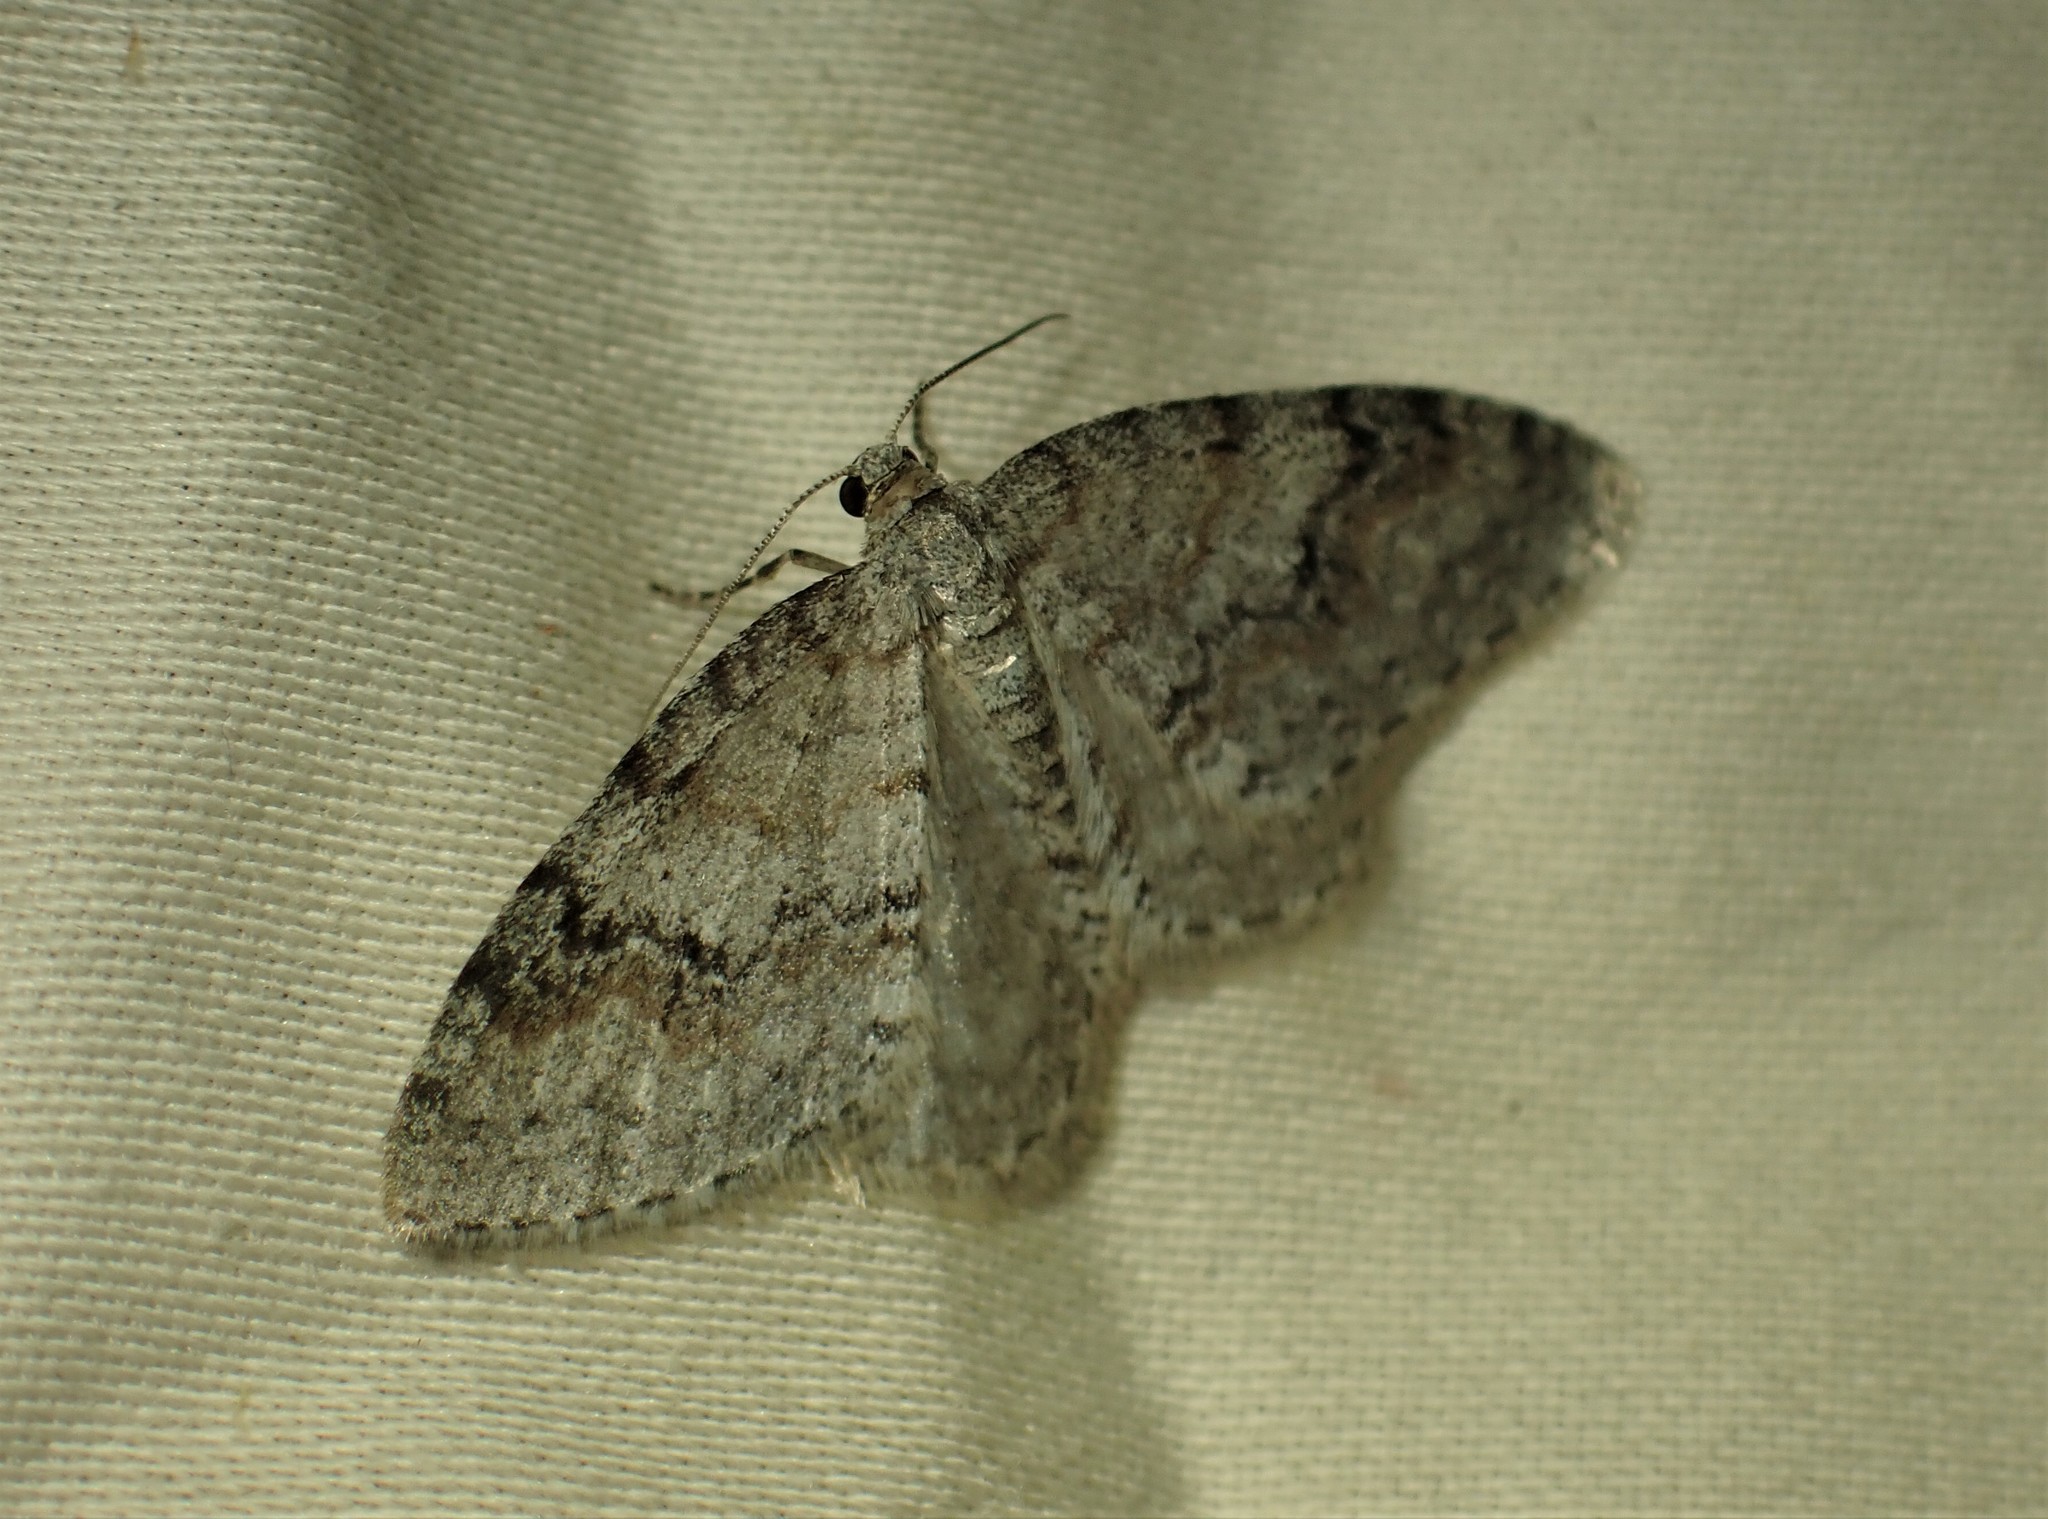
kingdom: Animalia
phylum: Arthropoda
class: Insecta
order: Lepidoptera
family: Geometridae
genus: Venusia
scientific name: Venusia comptaria
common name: Brown-shaded carpet
